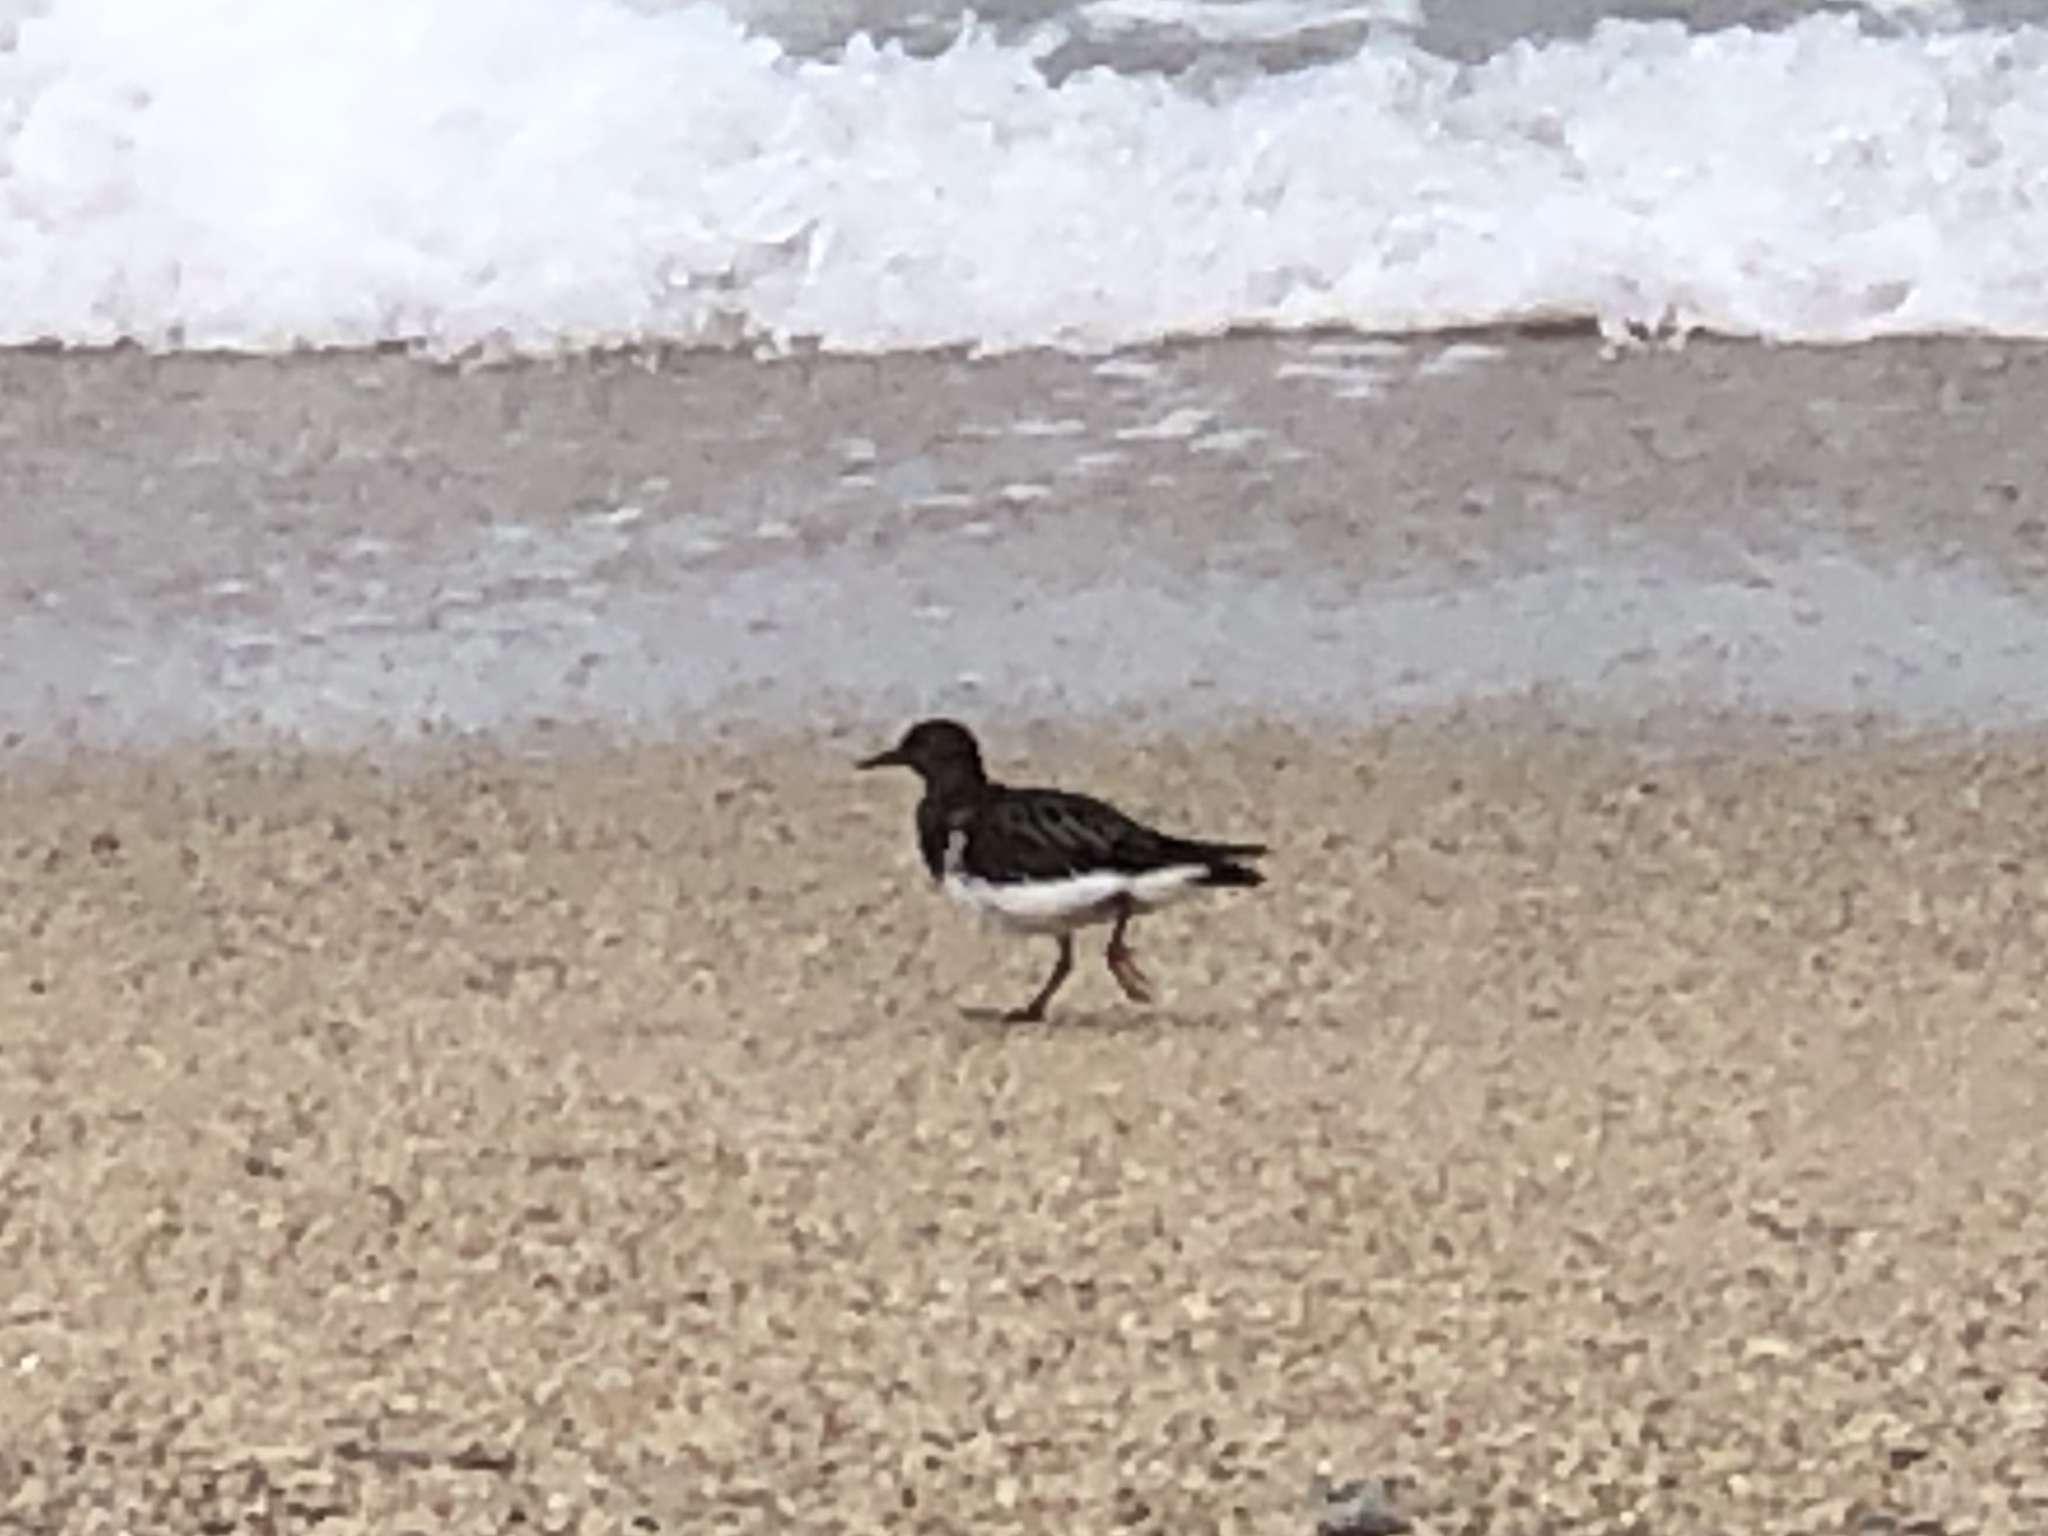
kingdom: Animalia
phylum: Chordata
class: Aves
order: Charadriiformes
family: Scolopacidae
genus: Arenaria
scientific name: Arenaria melanocephala
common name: Black turnstone
